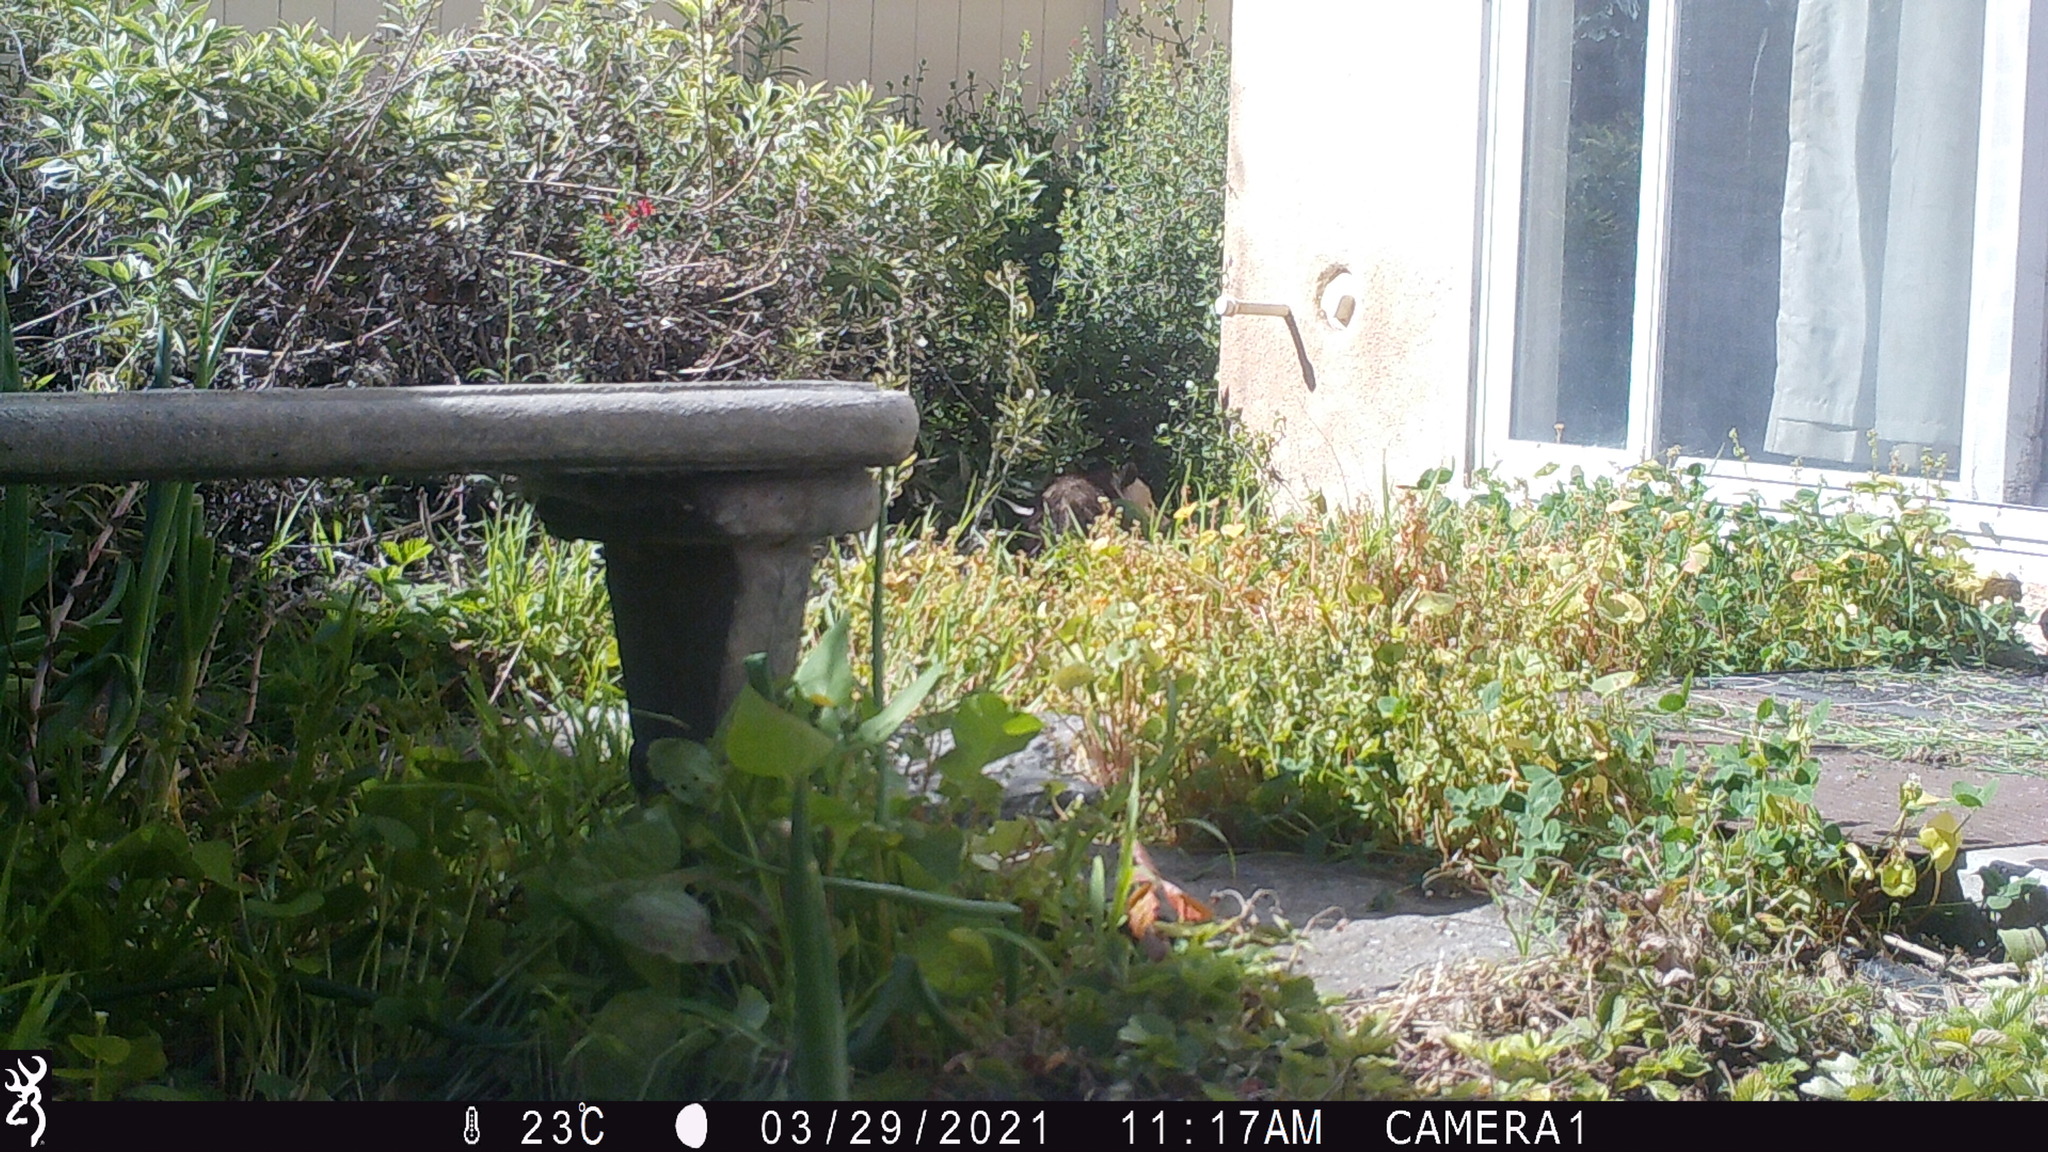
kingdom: Animalia
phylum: Chordata
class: Mammalia
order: Didelphimorphia
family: Didelphidae
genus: Didelphis
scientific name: Didelphis virginiana
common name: Virginia opossum
